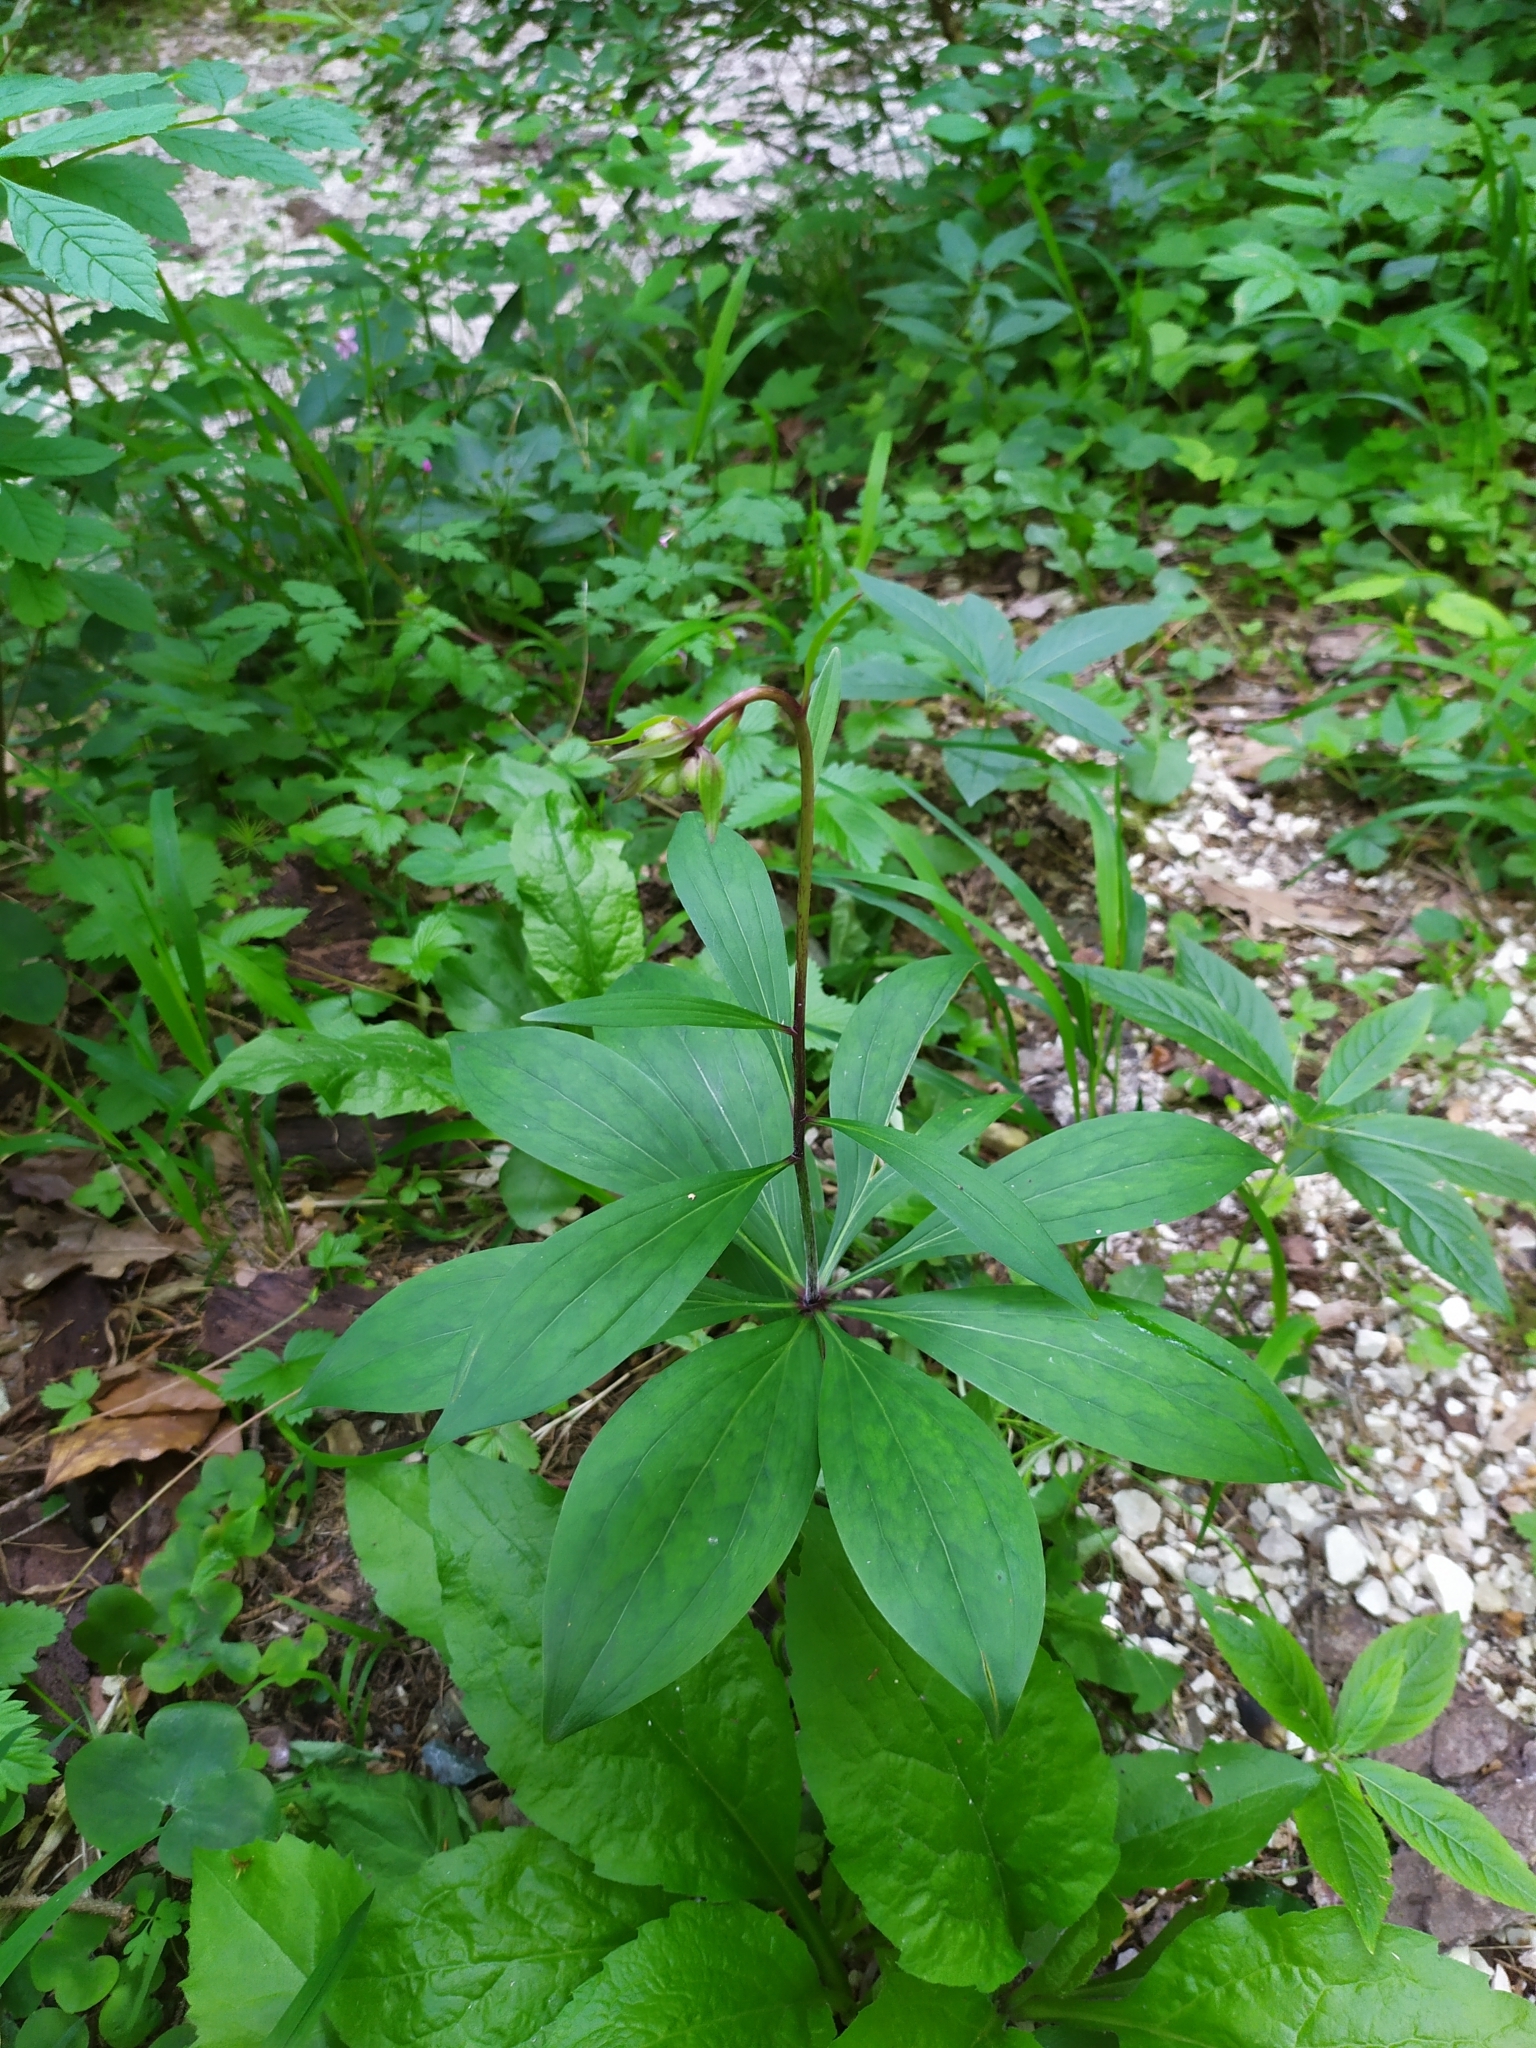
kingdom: Plantae
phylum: Tracheophyta
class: Liliopsida
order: Liliales
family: Liliaceae
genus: Lilium
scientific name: Lilium martagon
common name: Martagon lily
